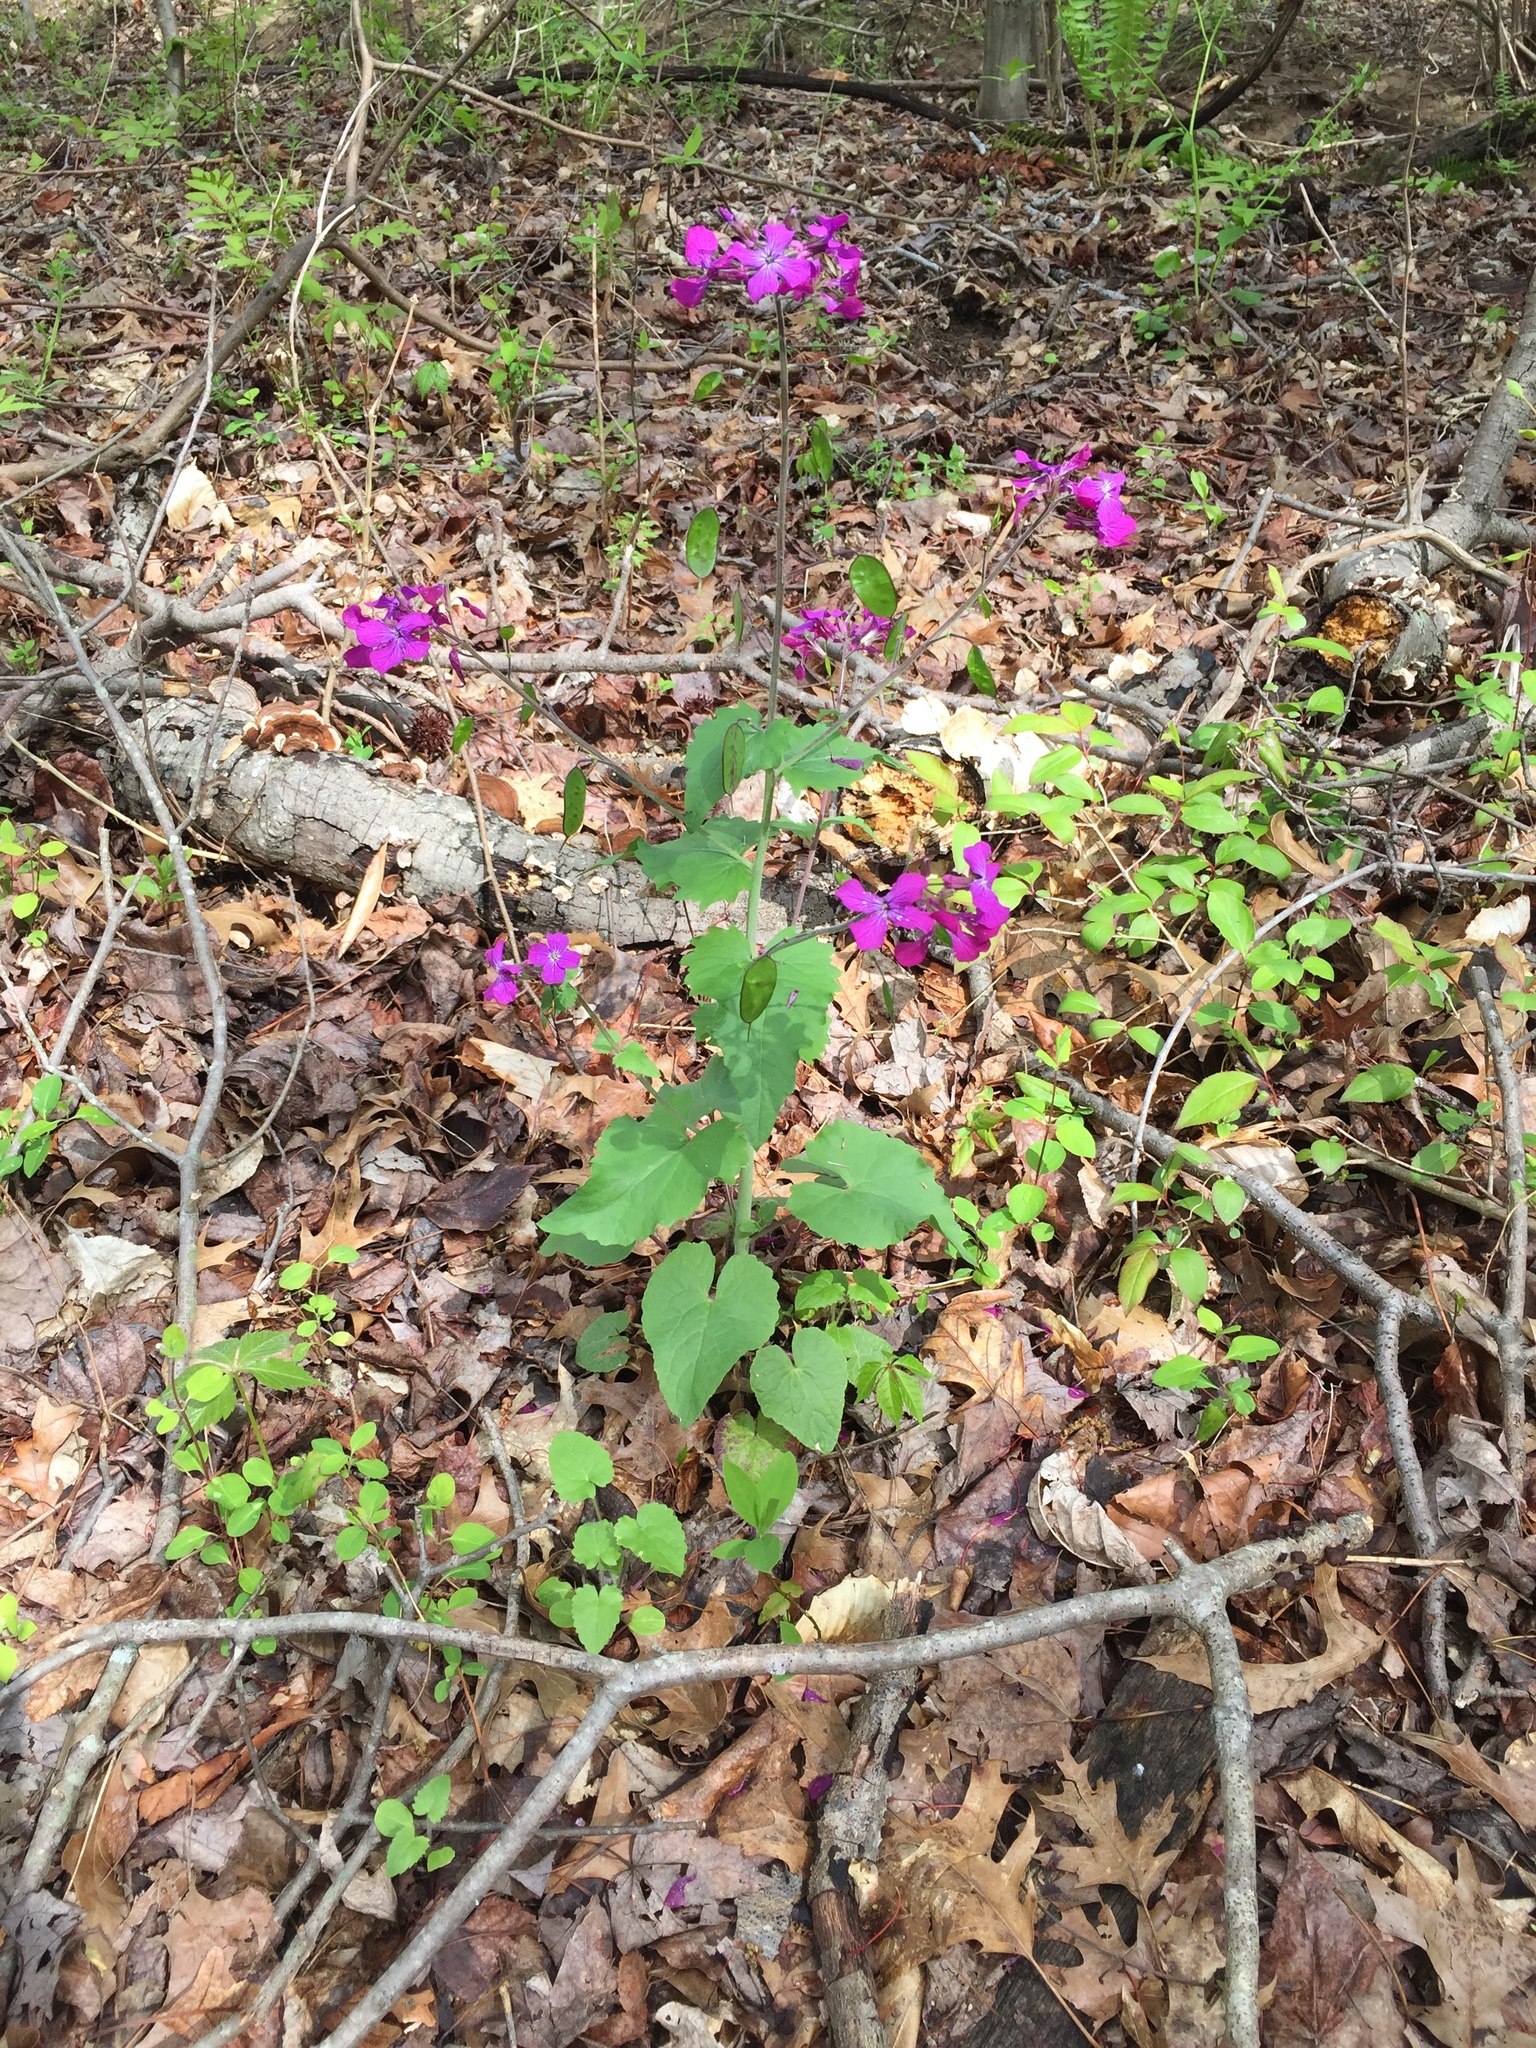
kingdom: Plantae
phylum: Tracheophyta
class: Magnoliopsida
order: Brassicales
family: Brassicaceae
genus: Lunaria
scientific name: Lunaria annua
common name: Honesty
